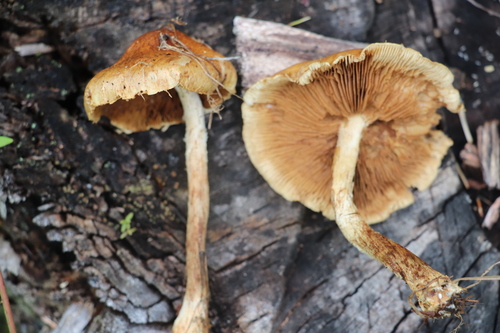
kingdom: Fungi
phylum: Basidiomycota
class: Agaricomycetes
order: Agaricales
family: Strophariaceae
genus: Pholiota
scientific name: Pholiota elegans
